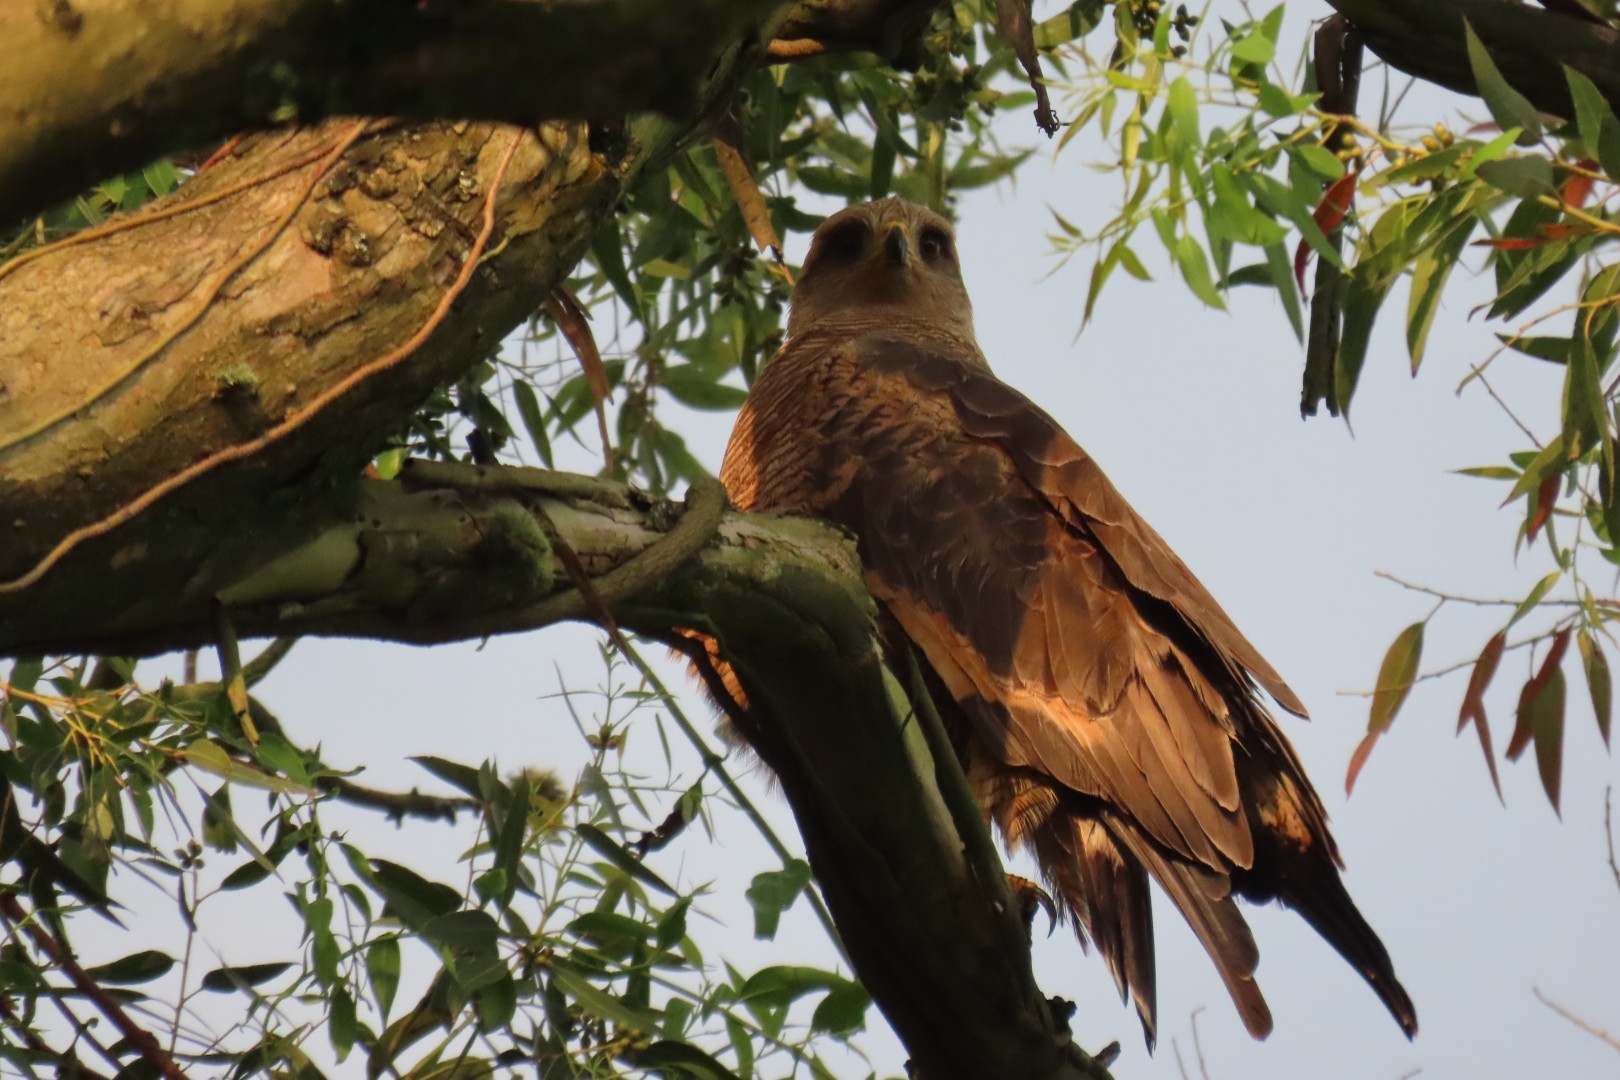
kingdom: Animalia
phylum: Chordata
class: Aves
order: Accipitriformes
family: Accipitridae
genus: Buteogallus
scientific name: Buteogallus meridionalis
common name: Savanna hawk
